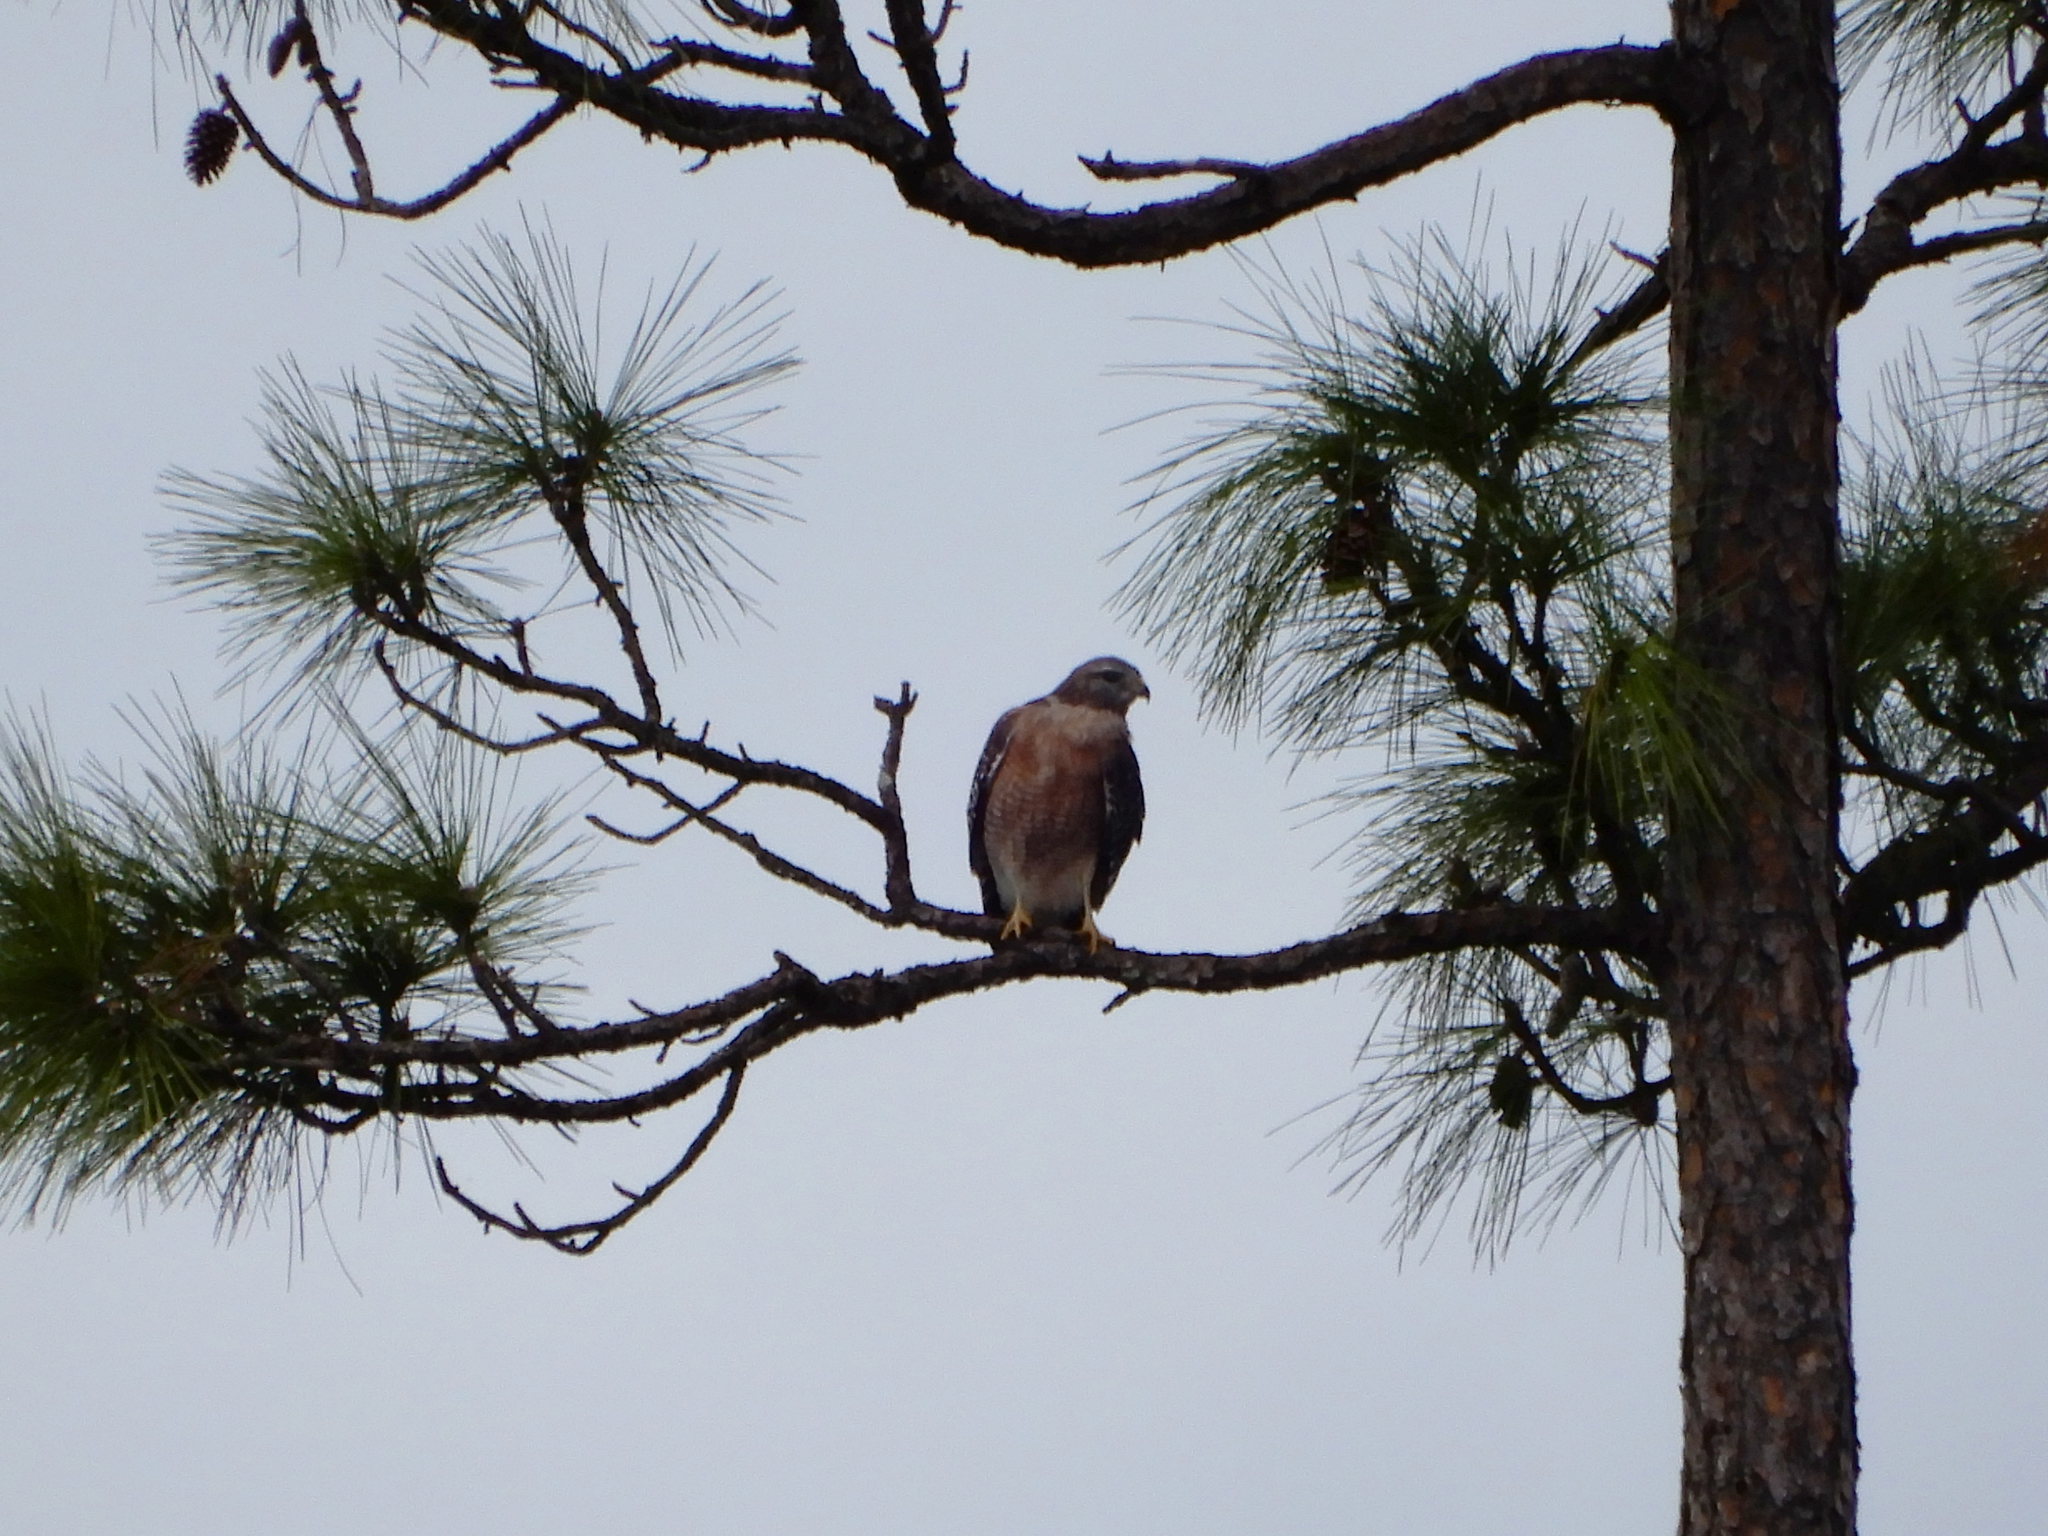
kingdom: Animalia
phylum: Chordata
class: Aves
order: Accipitriformes
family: Accipitridae
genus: Buteo
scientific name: Buteo lineatus
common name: Red-shouldered hawk
